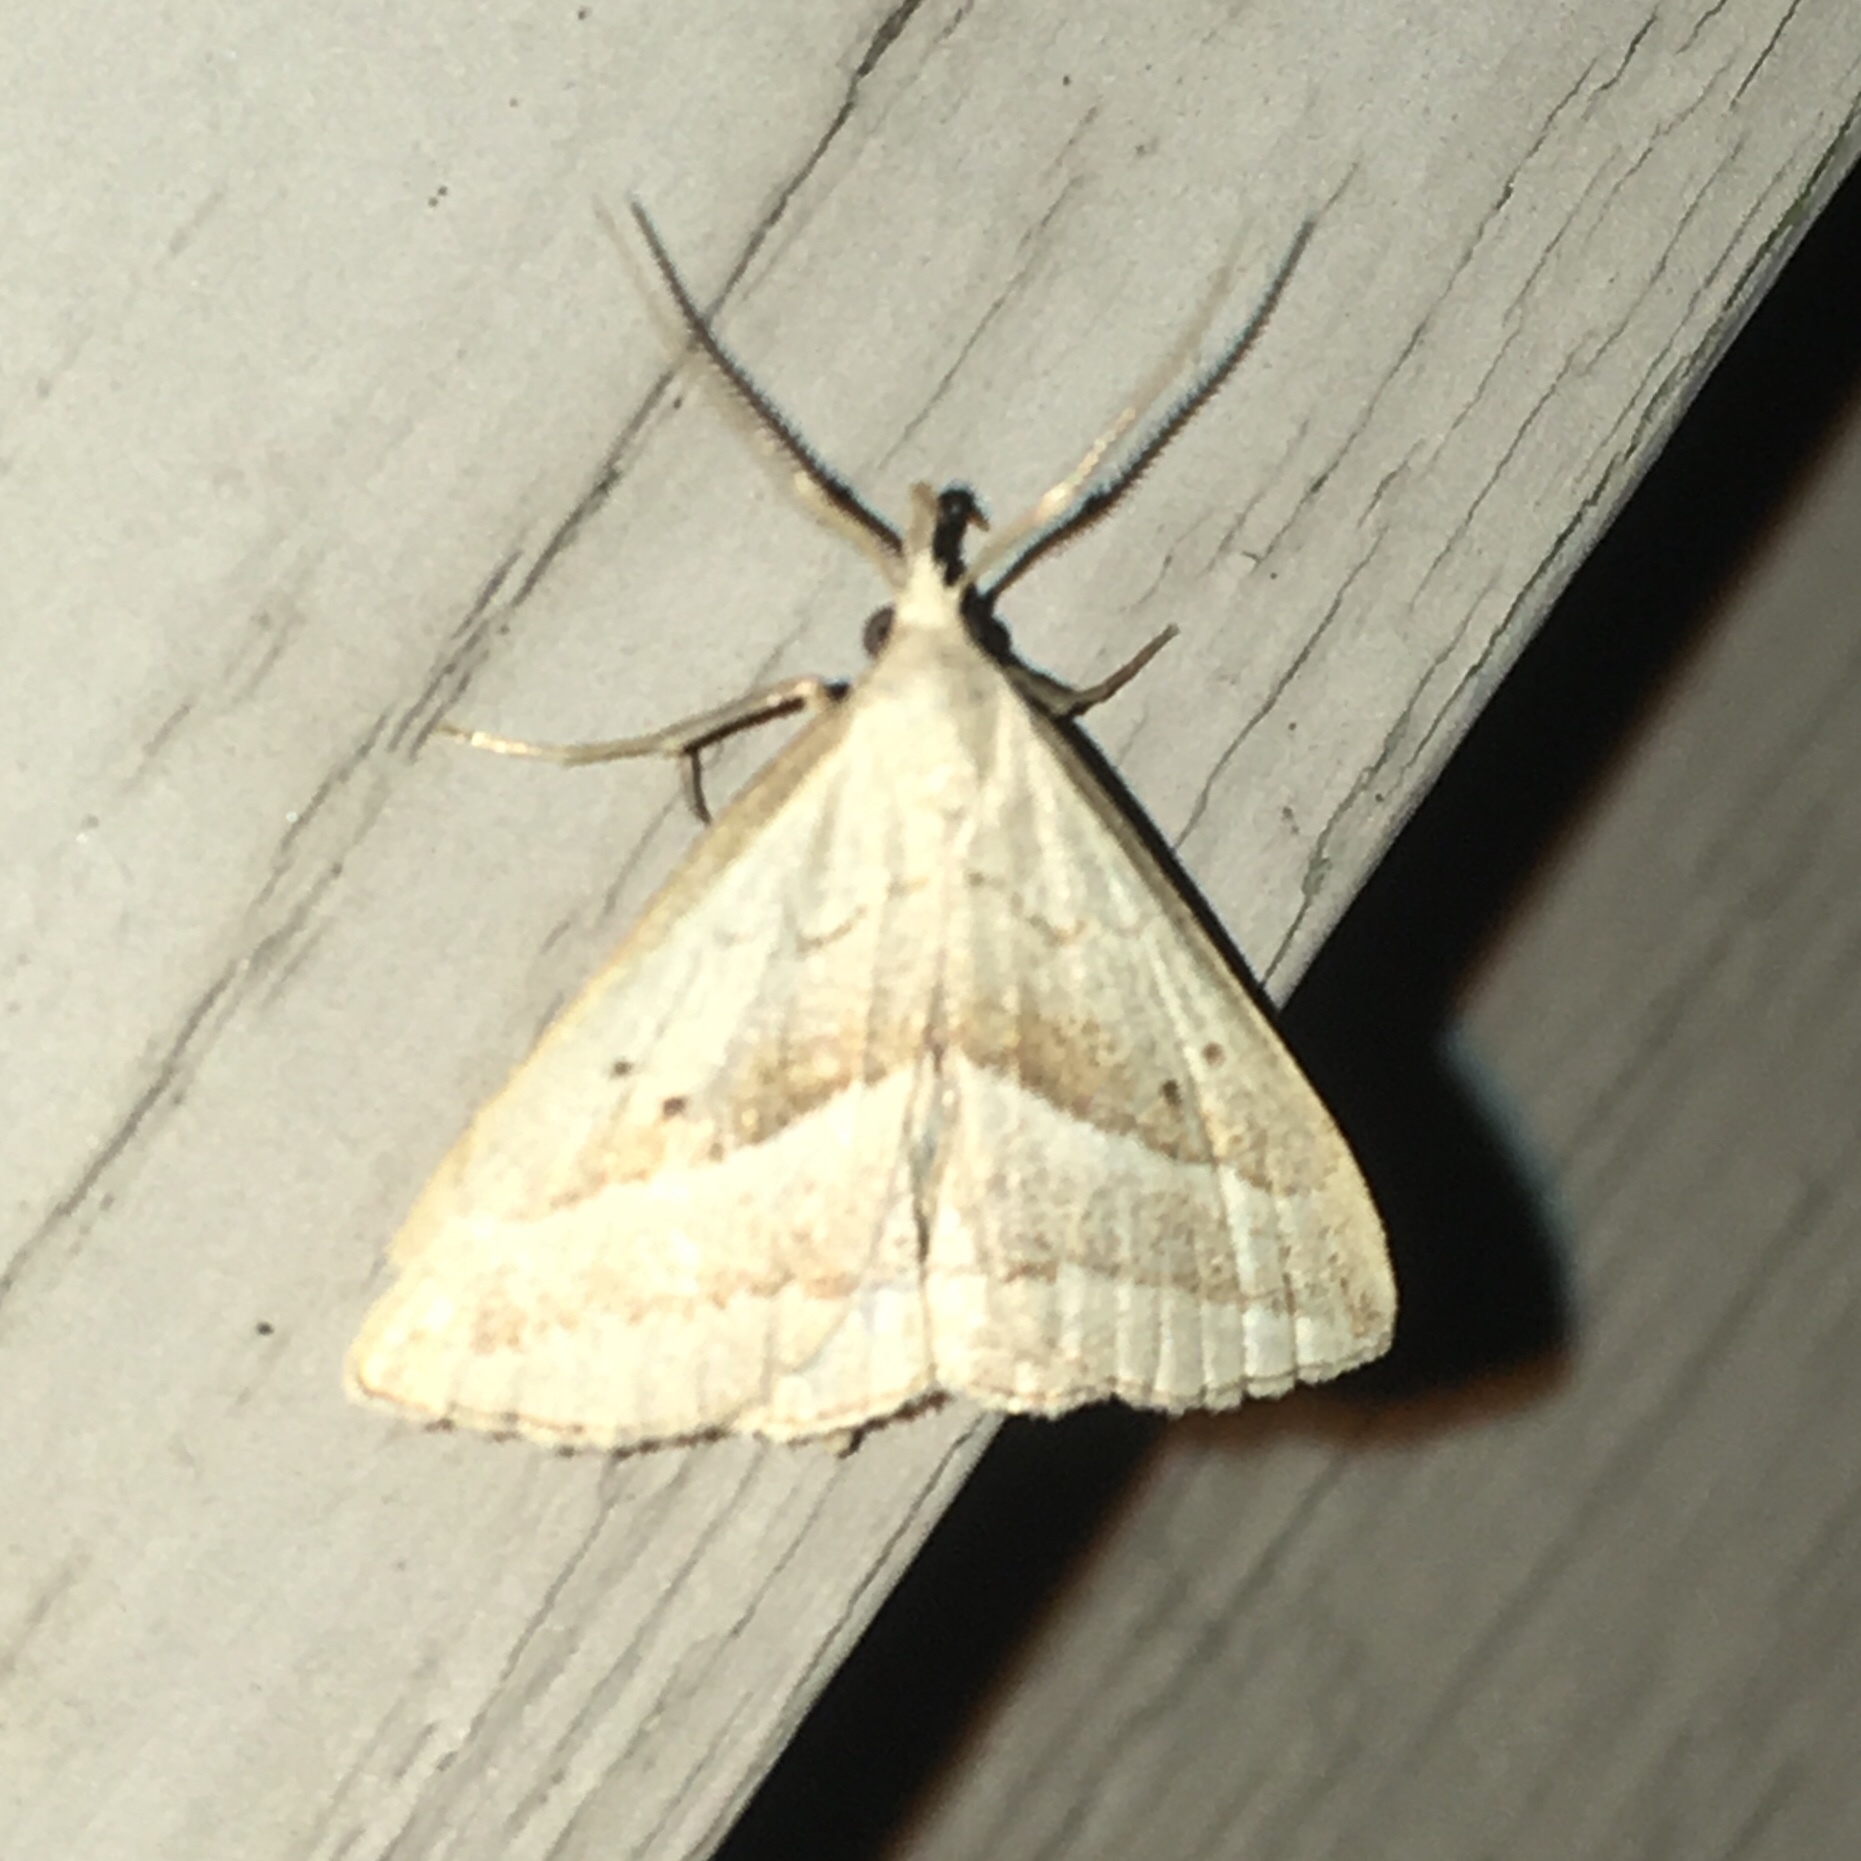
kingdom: Animalia
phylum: Arthropoda
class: Insecta
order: Lepidoptera
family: Erebidae
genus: Macrochilo
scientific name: Macrochilo absorptalis
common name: Slant-lined owlet
